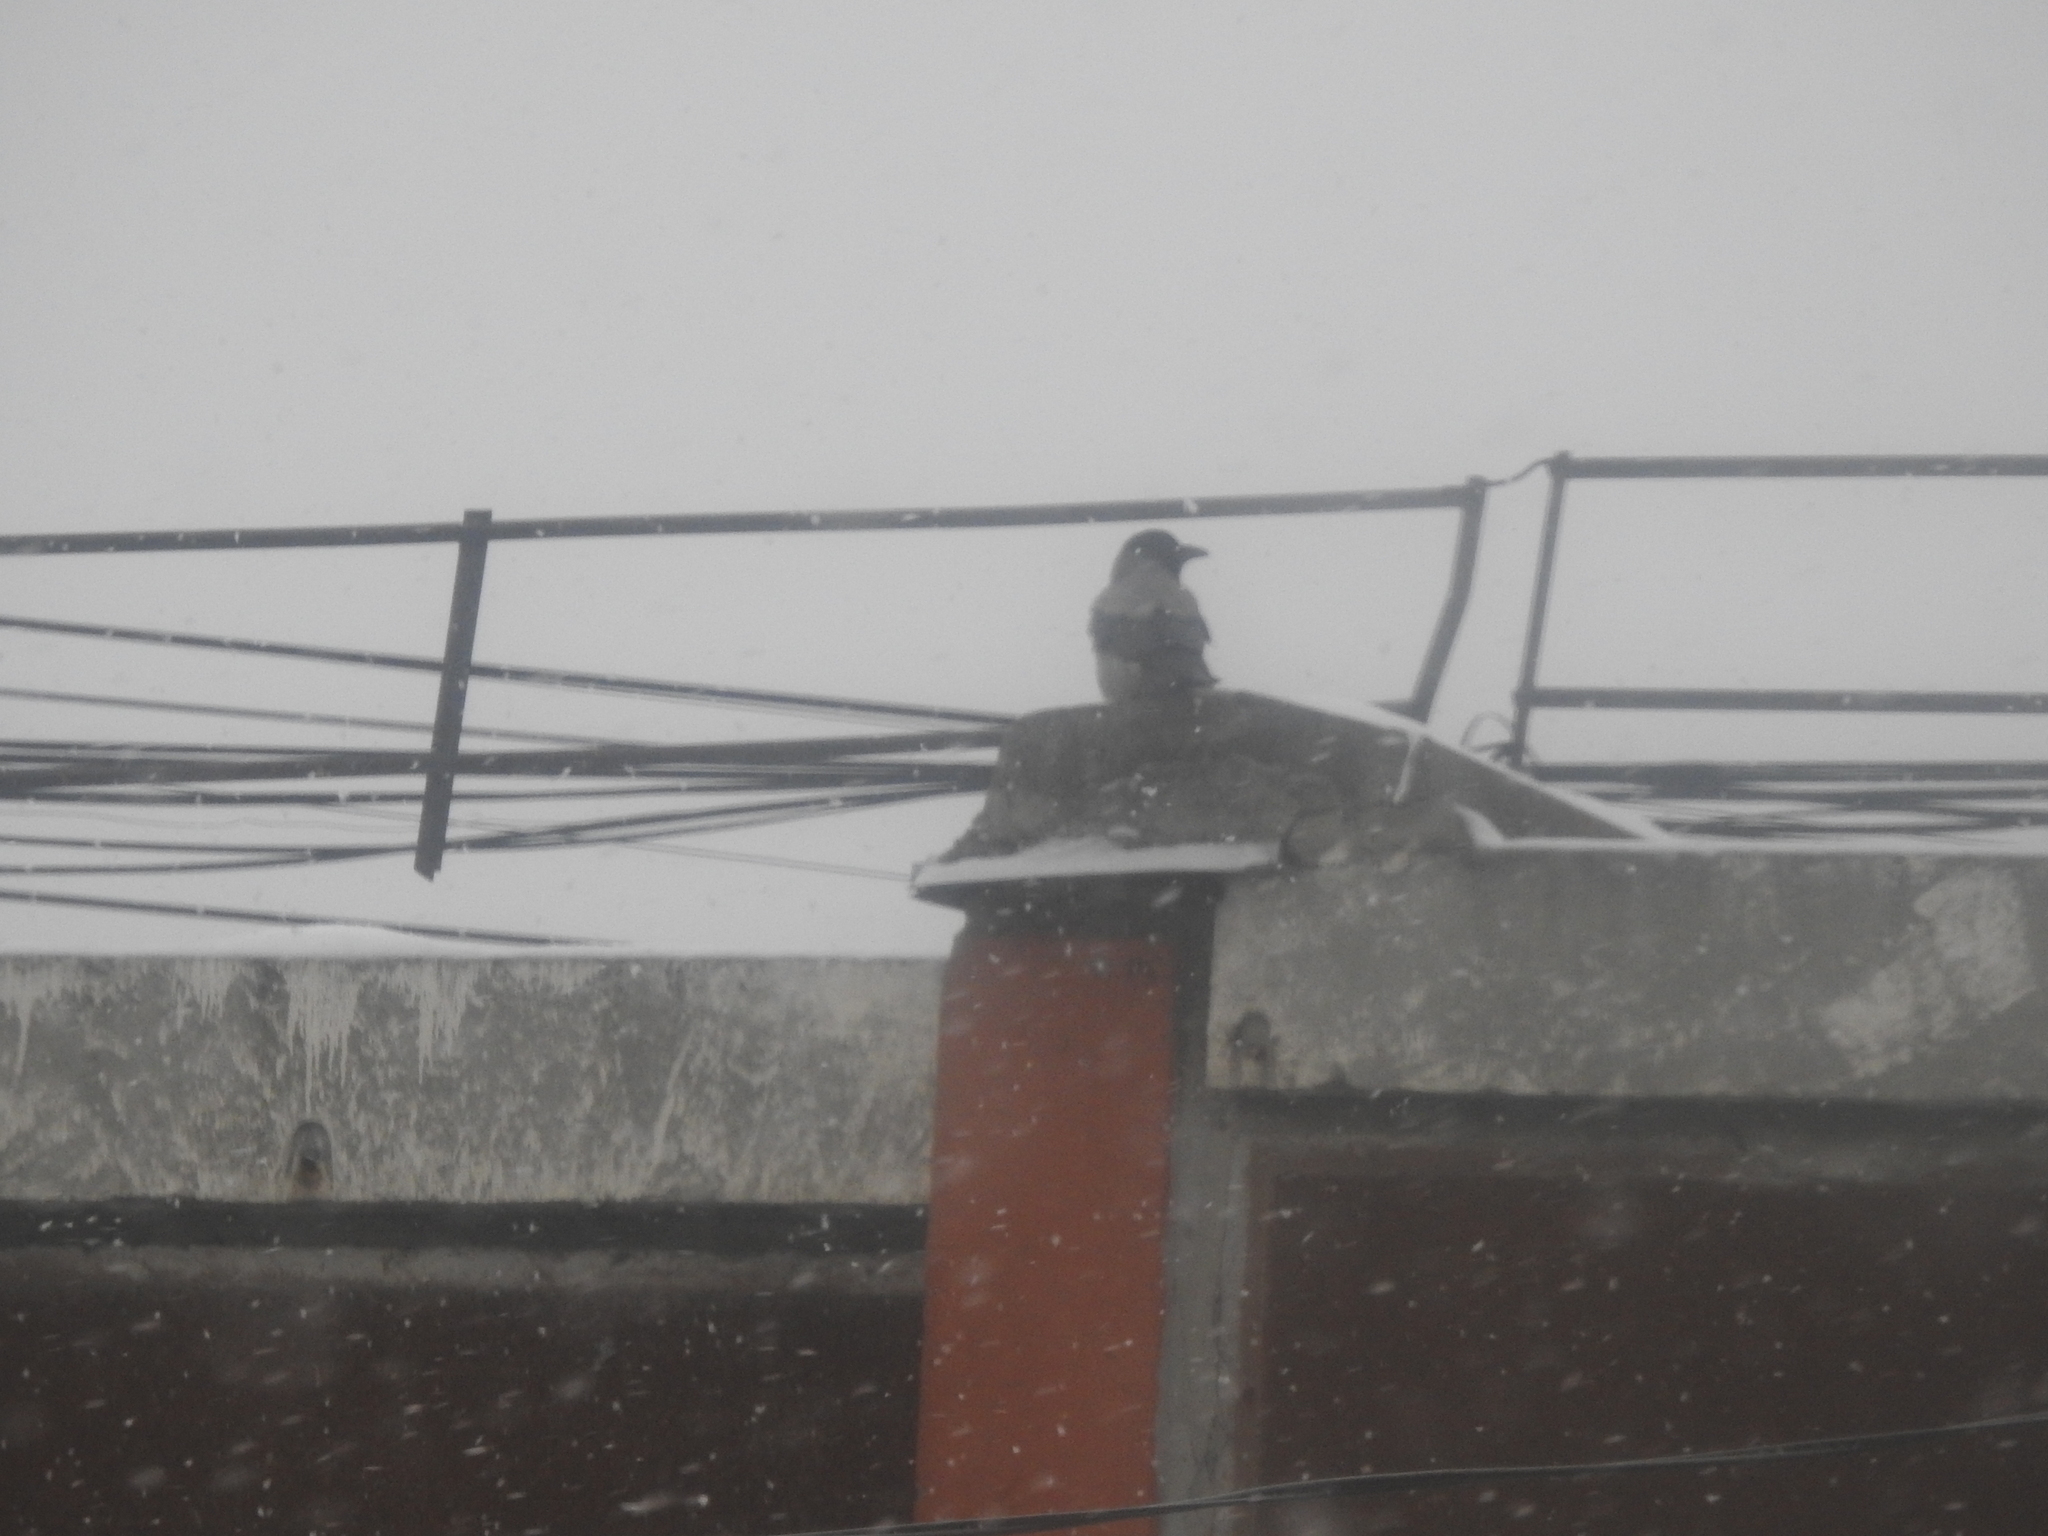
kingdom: Animalia
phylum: Chordata
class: Aves
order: Passeriformes
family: Corvidae
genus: Corvus
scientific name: Corvus cornix
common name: Hooded crow
